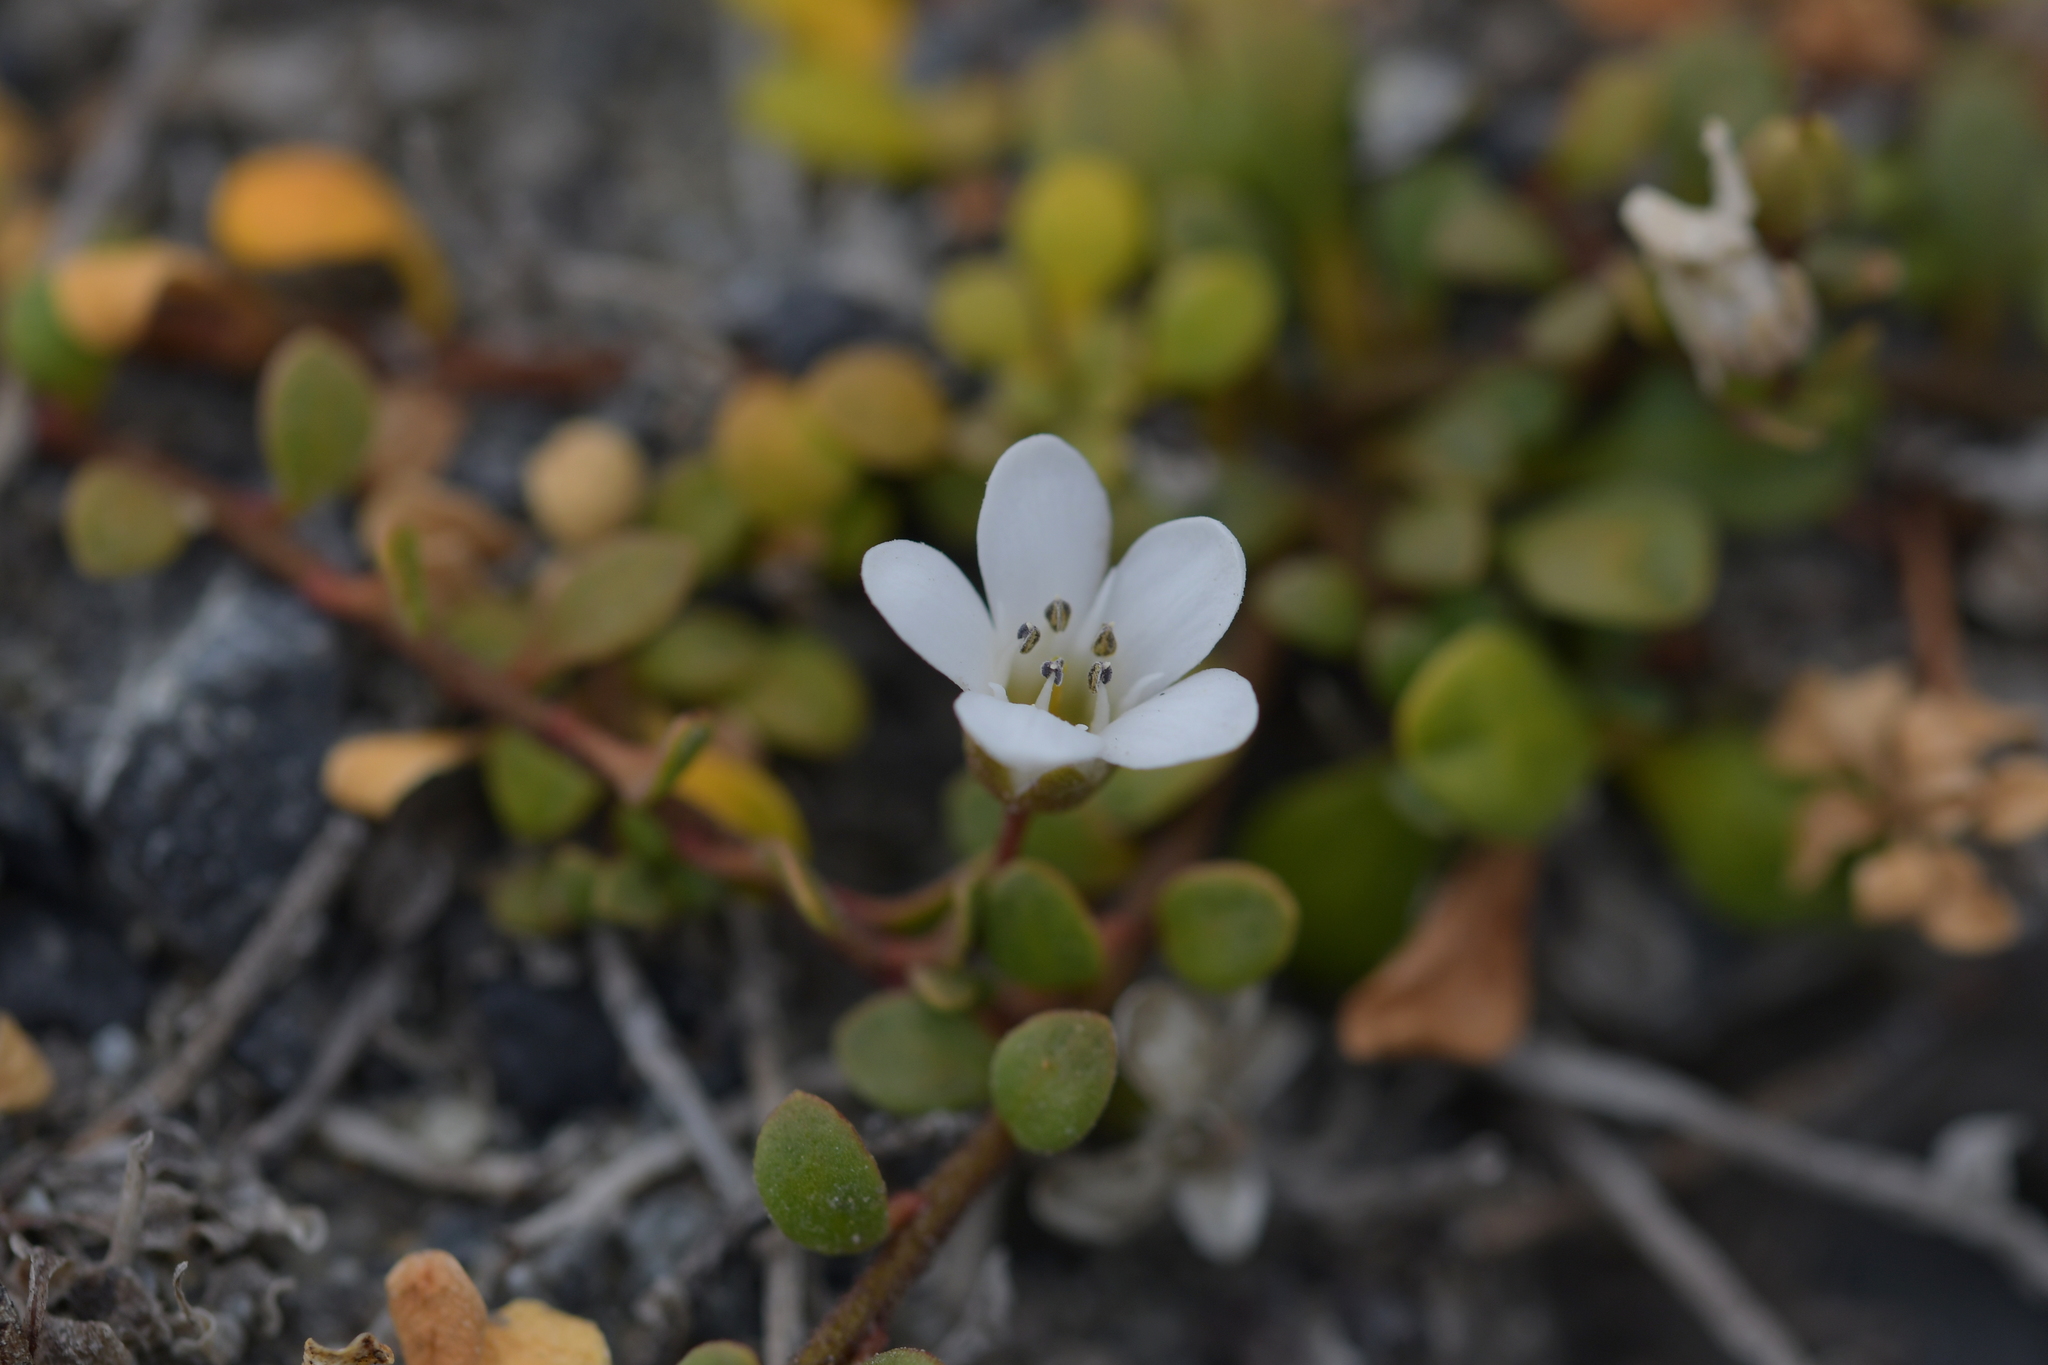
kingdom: Plantae
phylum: Tracheophyta
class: Magnoliopsida
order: Ericales
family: Primulaceae
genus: Samolus
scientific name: Samolus repens
